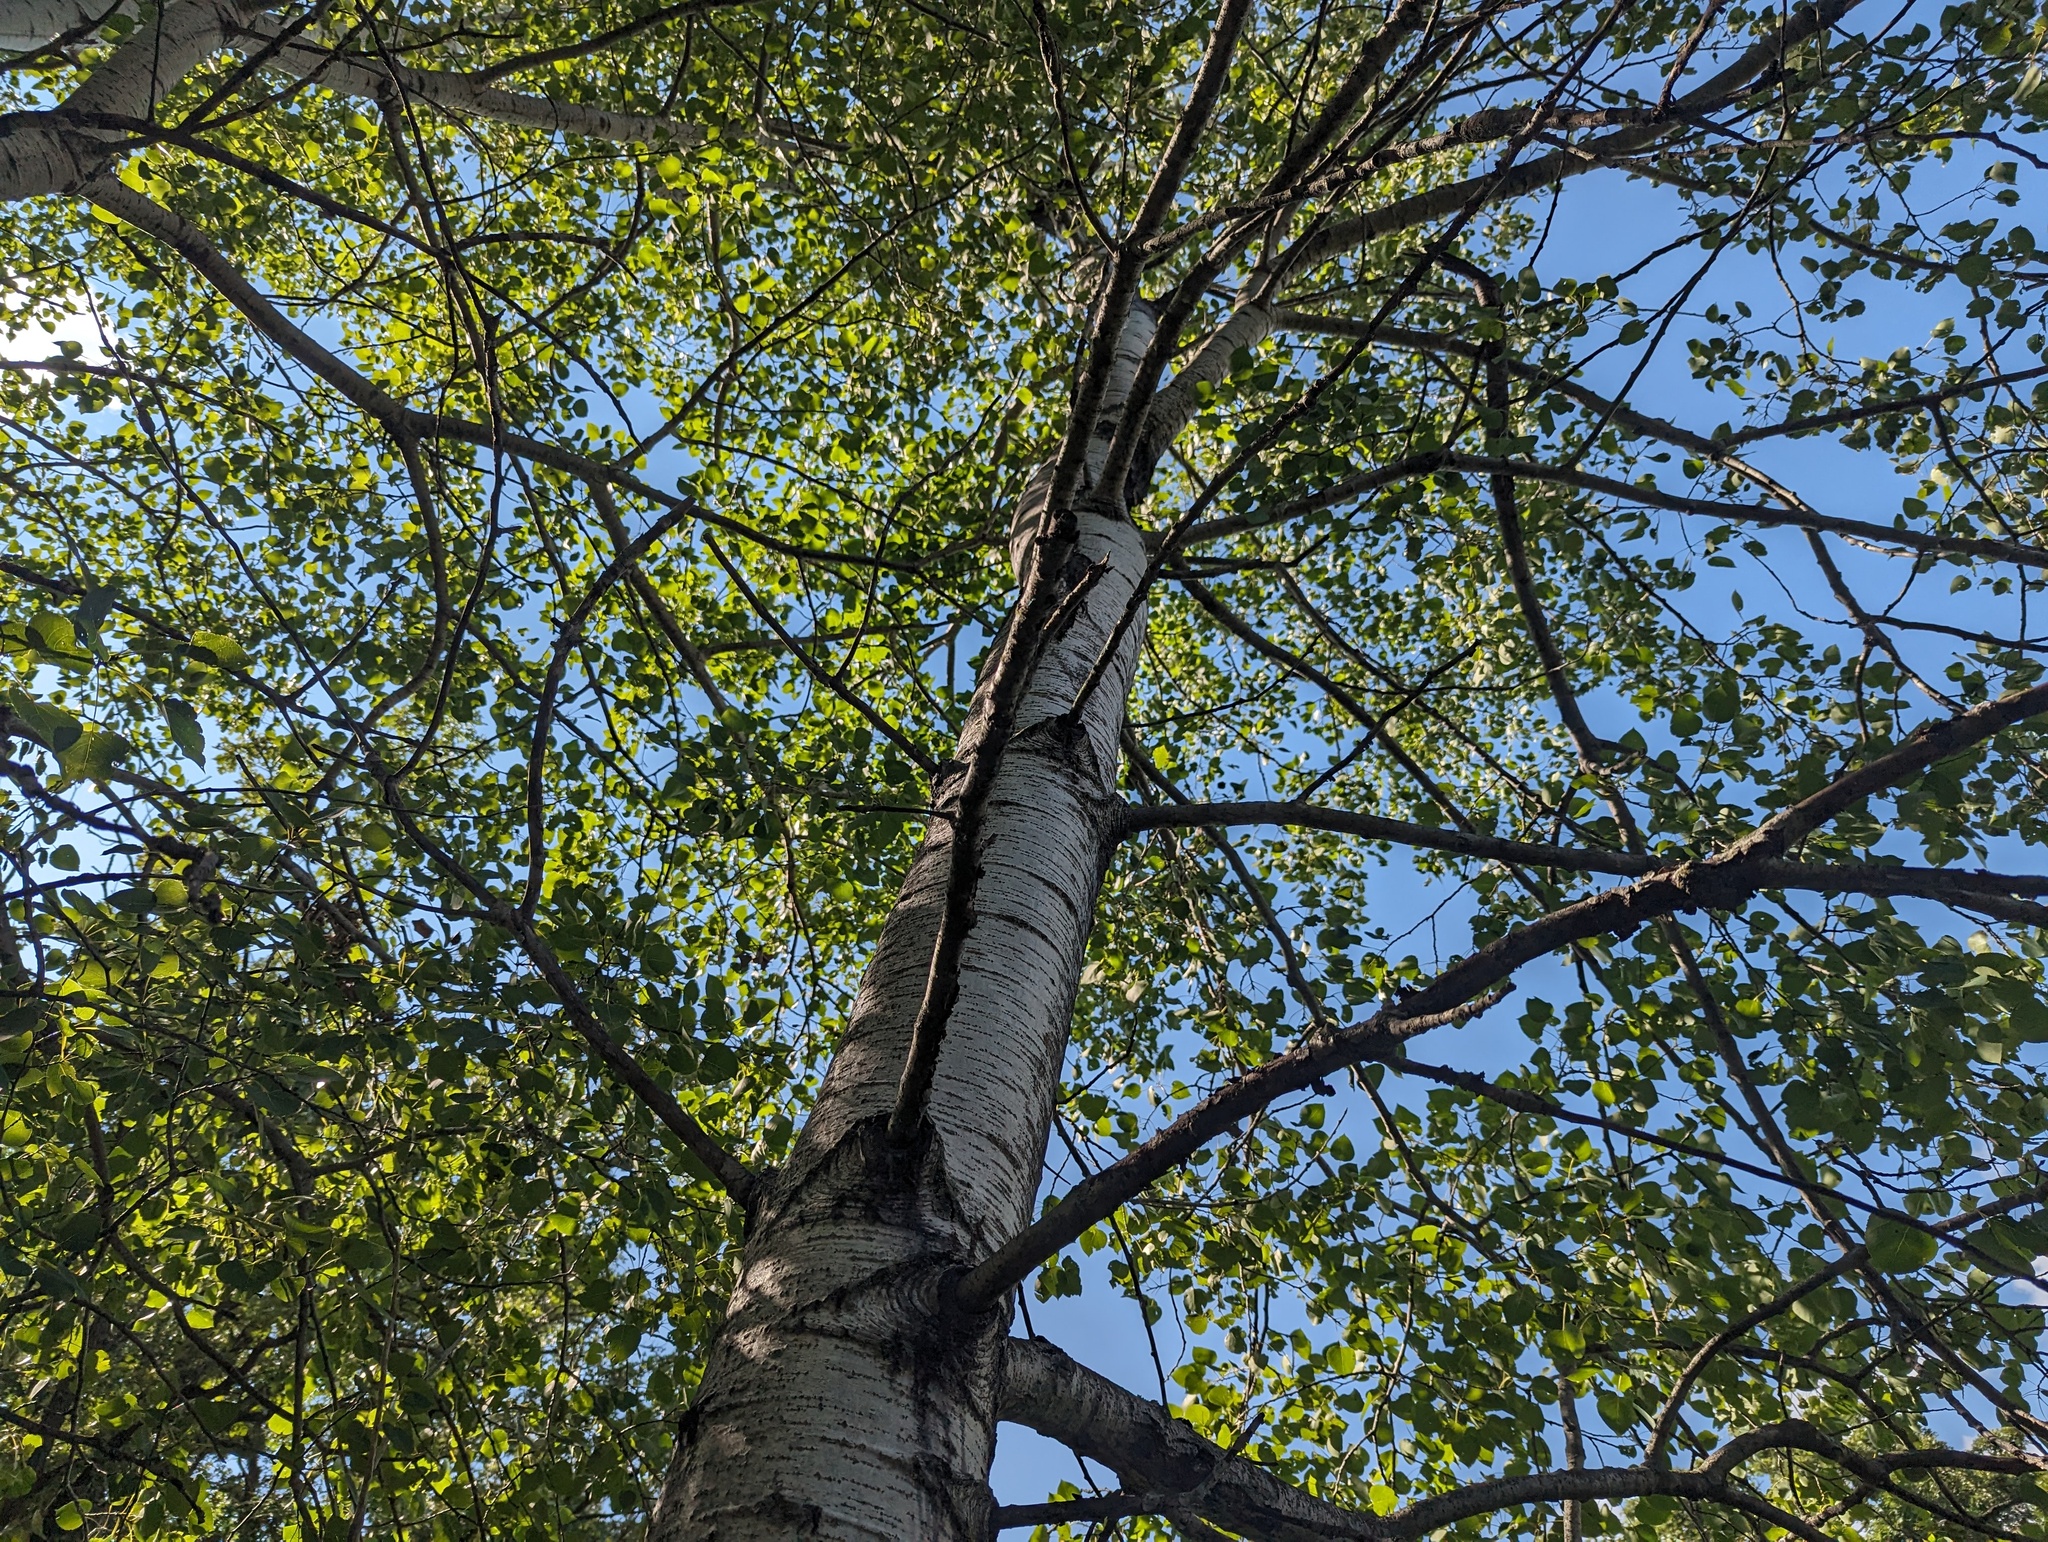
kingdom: Plantae
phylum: Tracheophyta
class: Magnoliopsida
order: Malpighiales
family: Salicaceae
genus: Populus
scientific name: Populus tremuloides
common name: Quaking aspen
